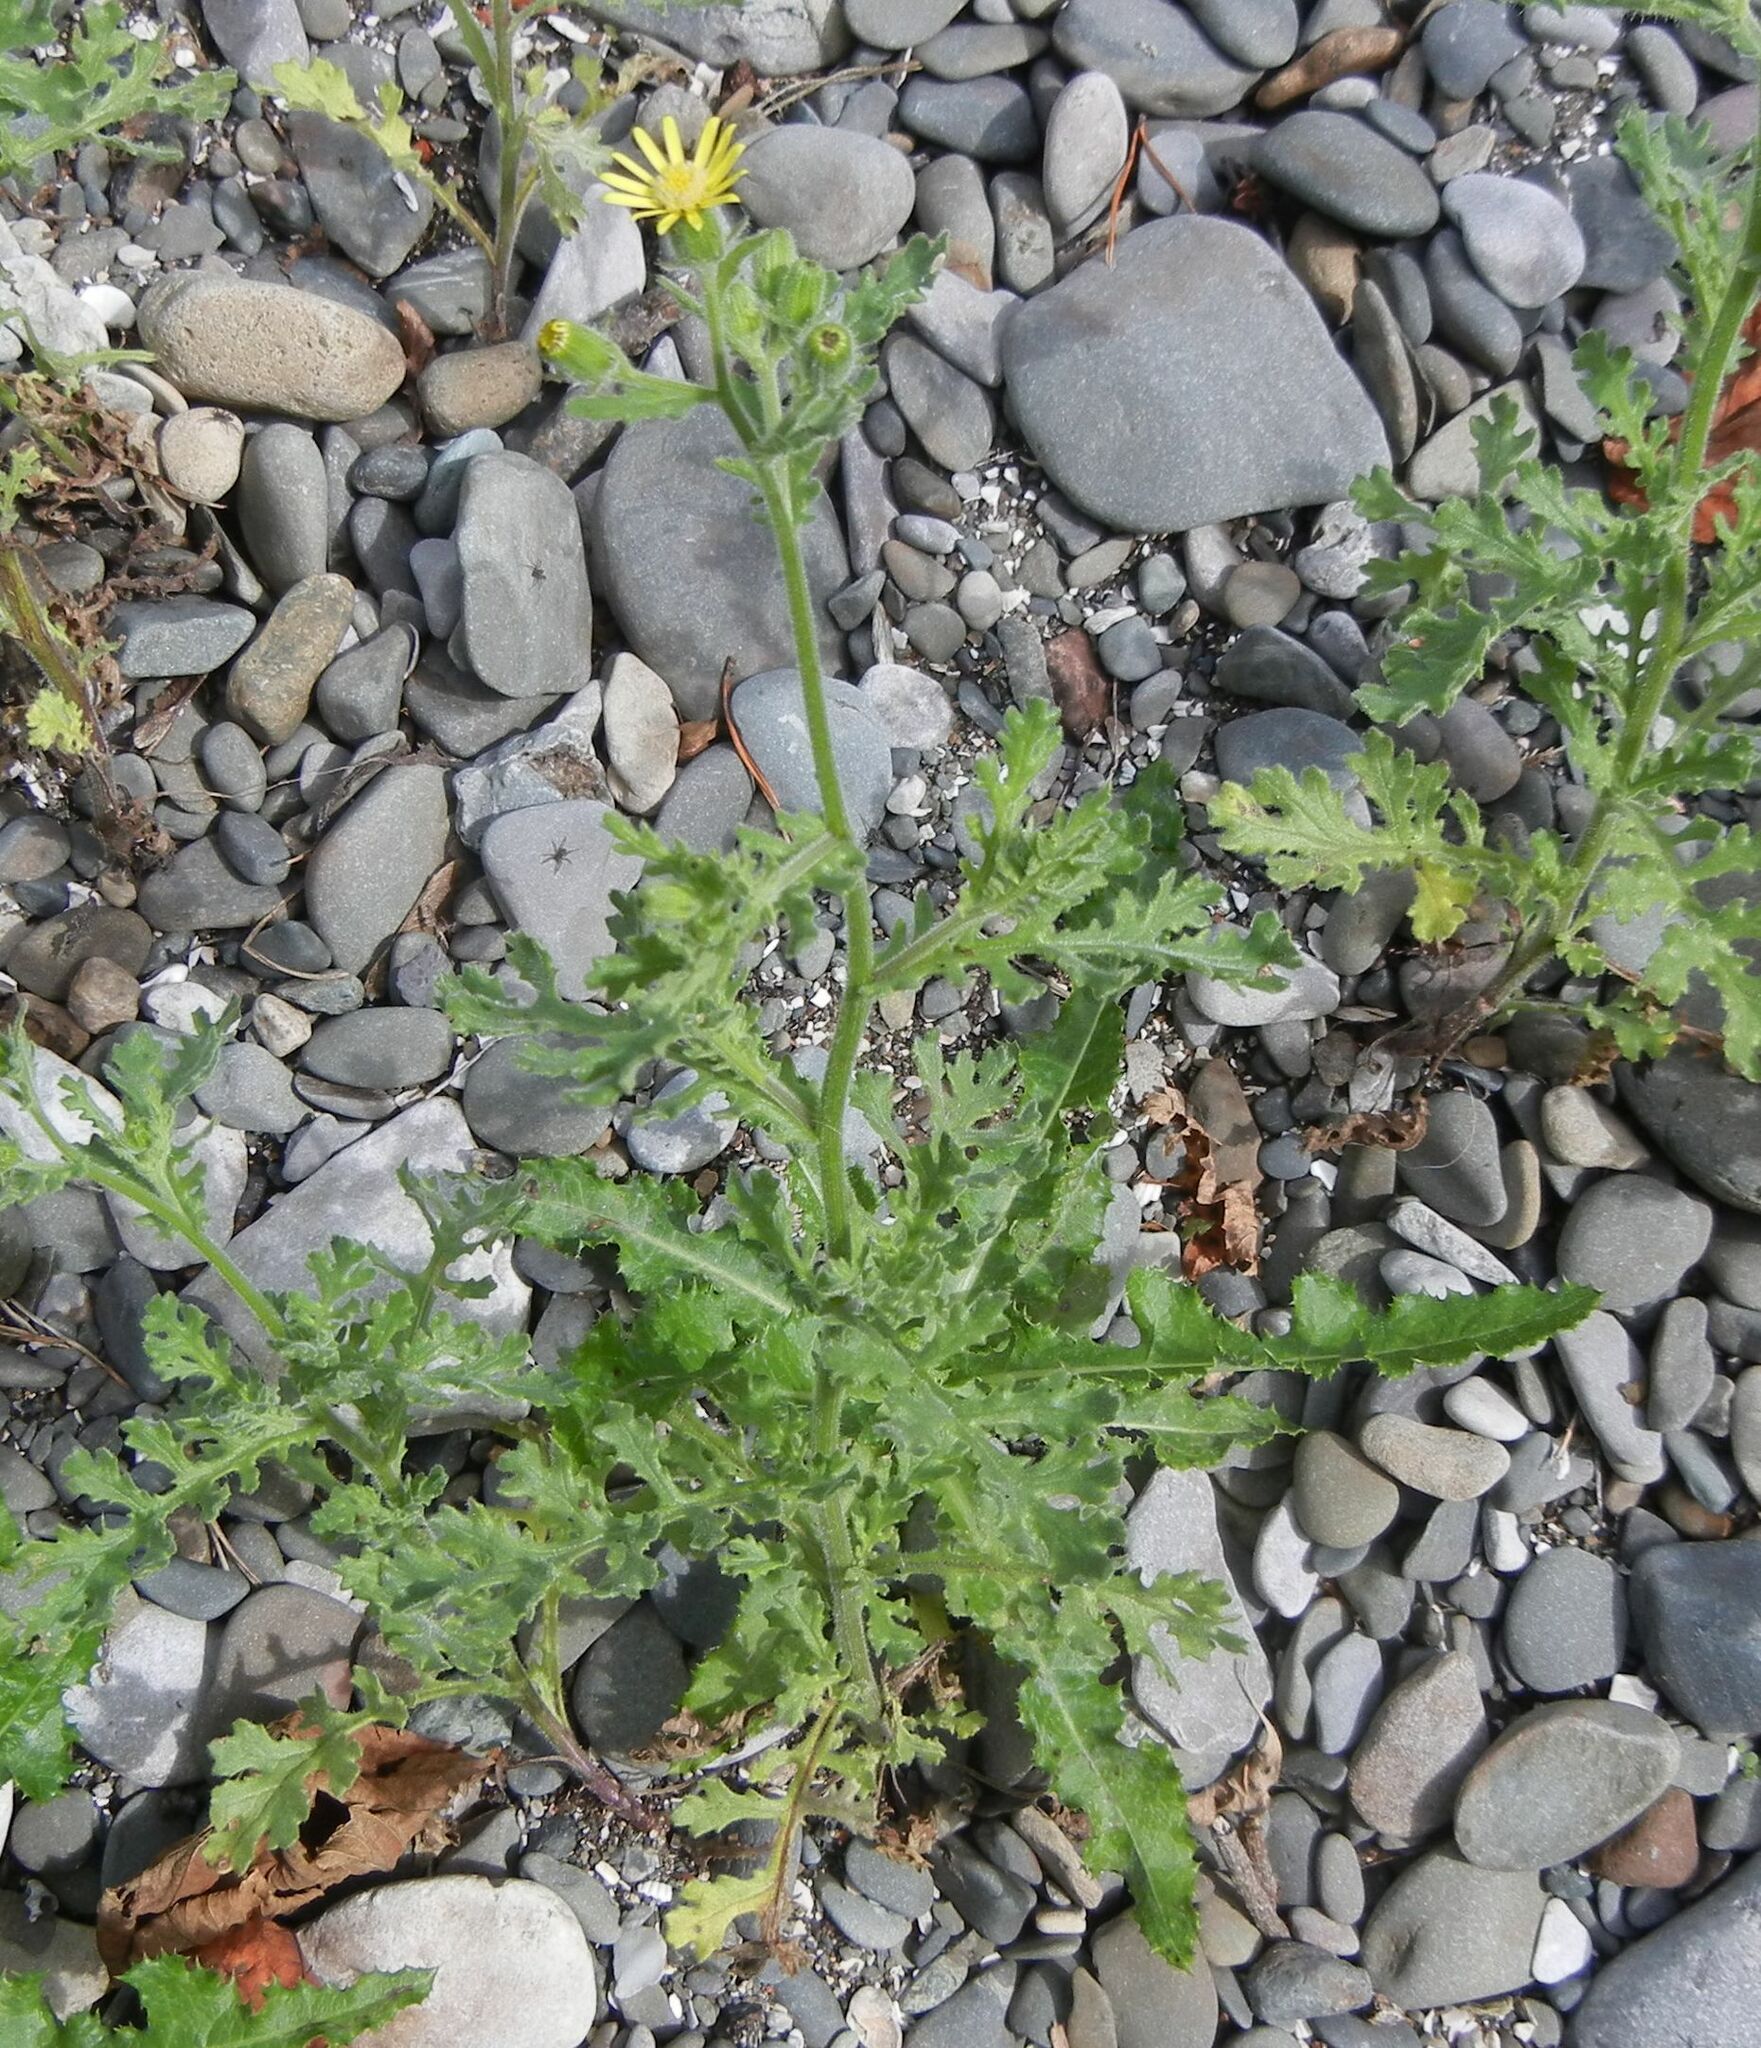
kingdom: Plantae
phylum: Tracheophyta
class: Magnoliopsida
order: Asterales
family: Asteraceae
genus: Senecio
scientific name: Senecio viscosus
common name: Sticky groundsel
